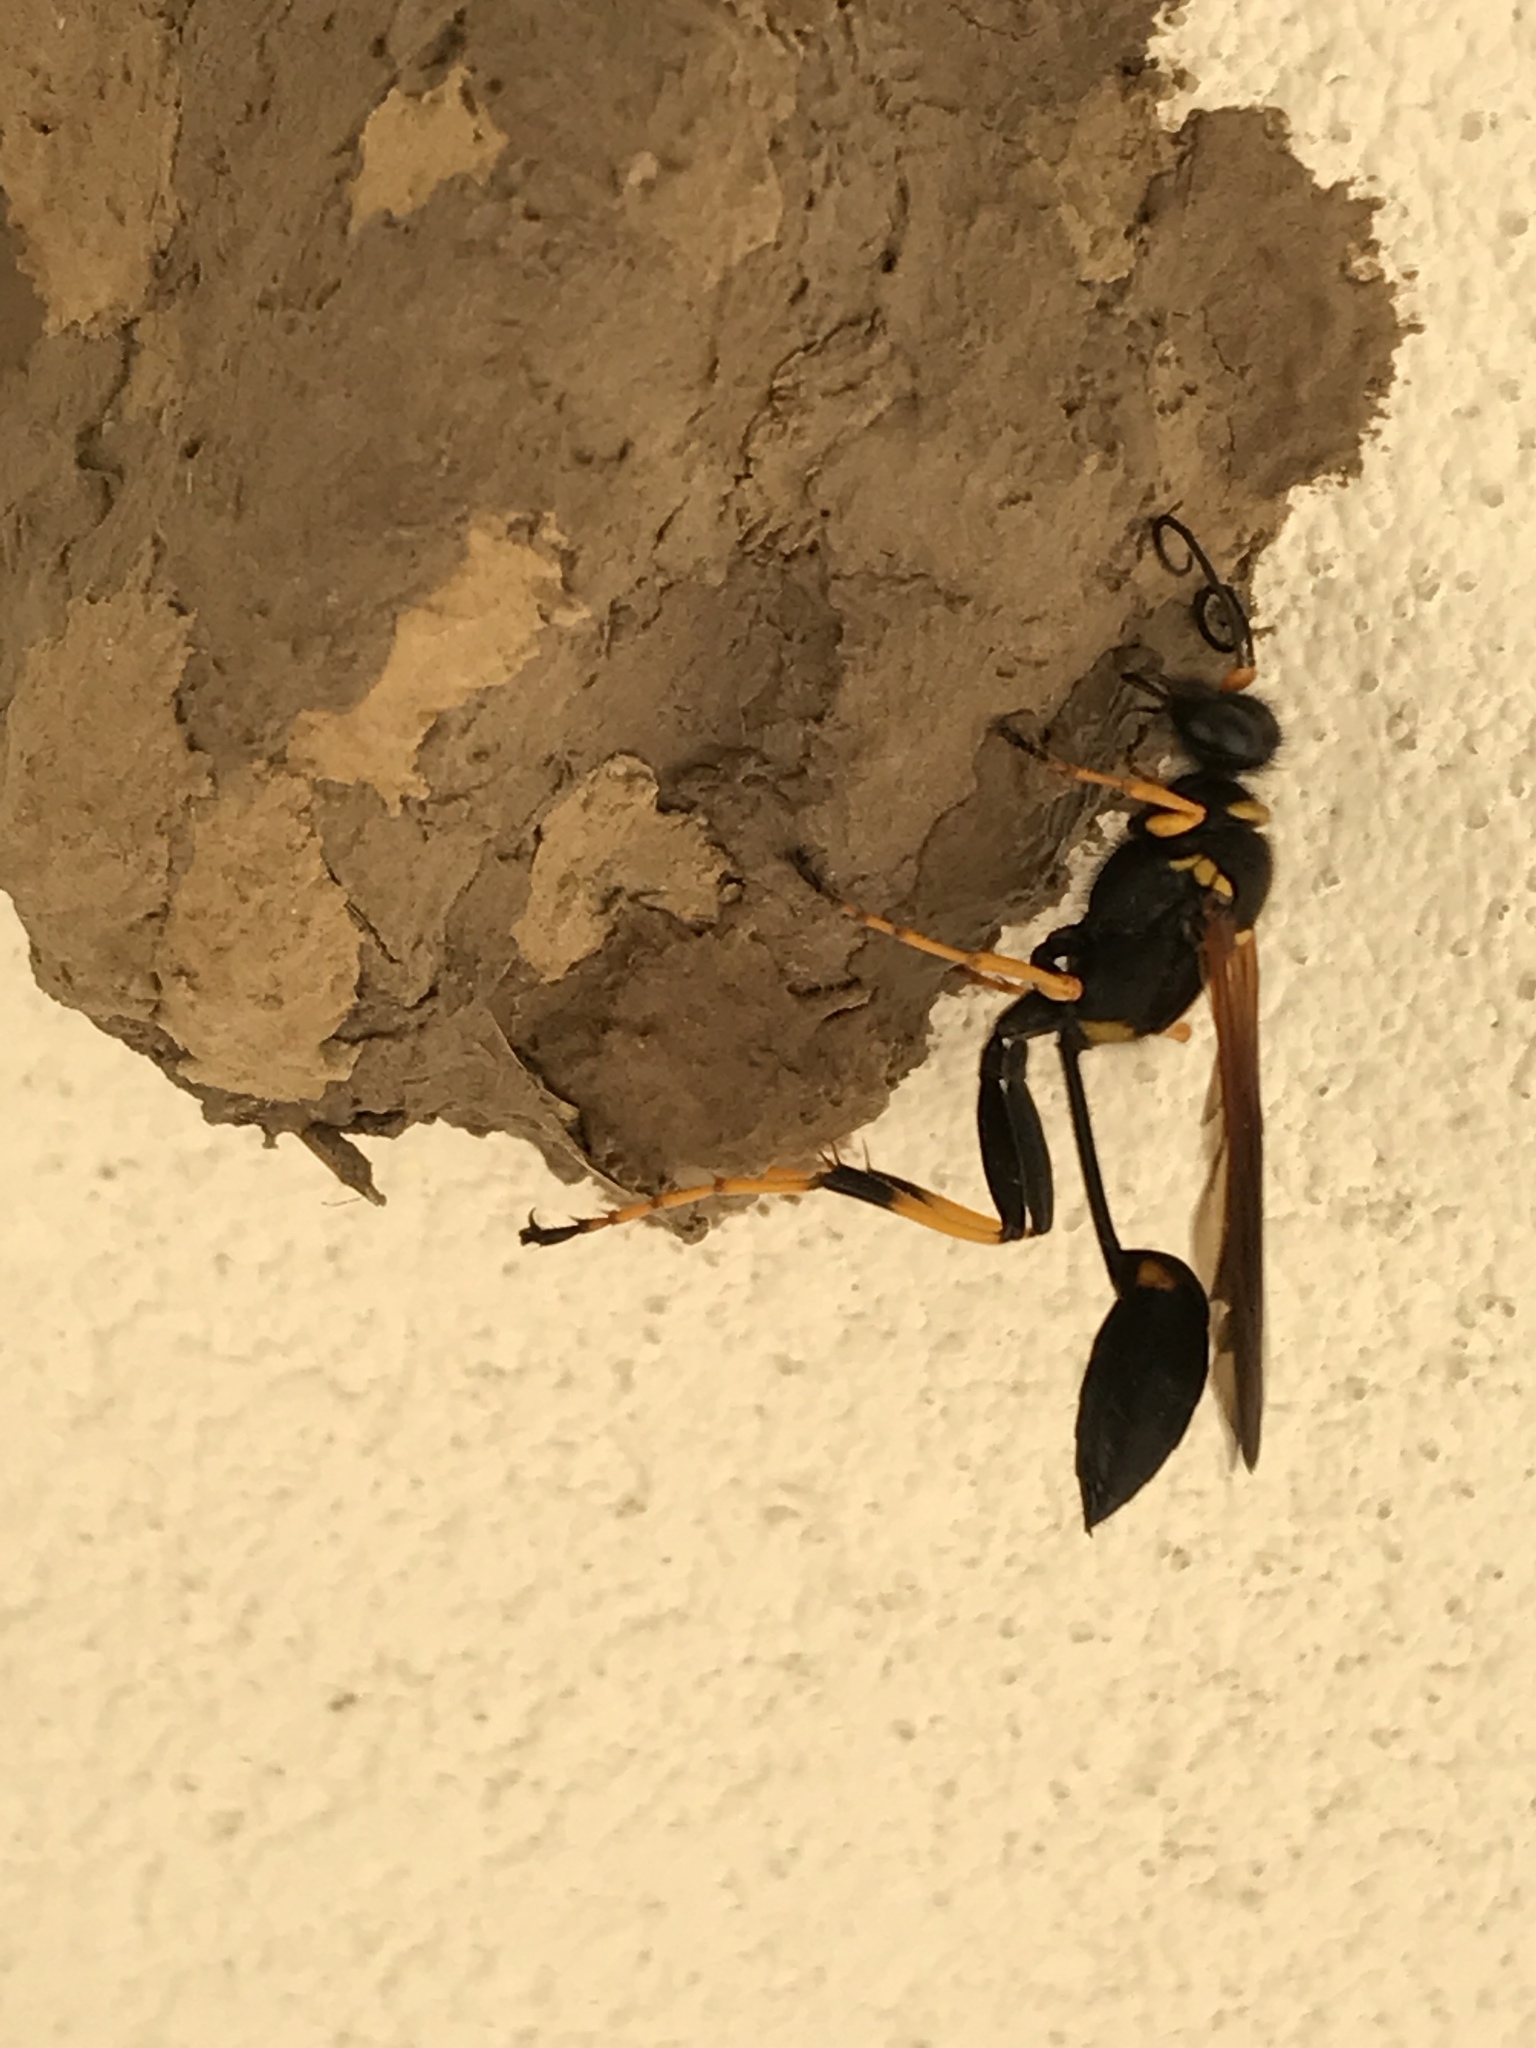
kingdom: Animalia
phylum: Arthropoda
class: Insecta
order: Hymenoptera
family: Sphecidae
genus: Sceliphron
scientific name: Sceliphron caementarium
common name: Mud dauber
